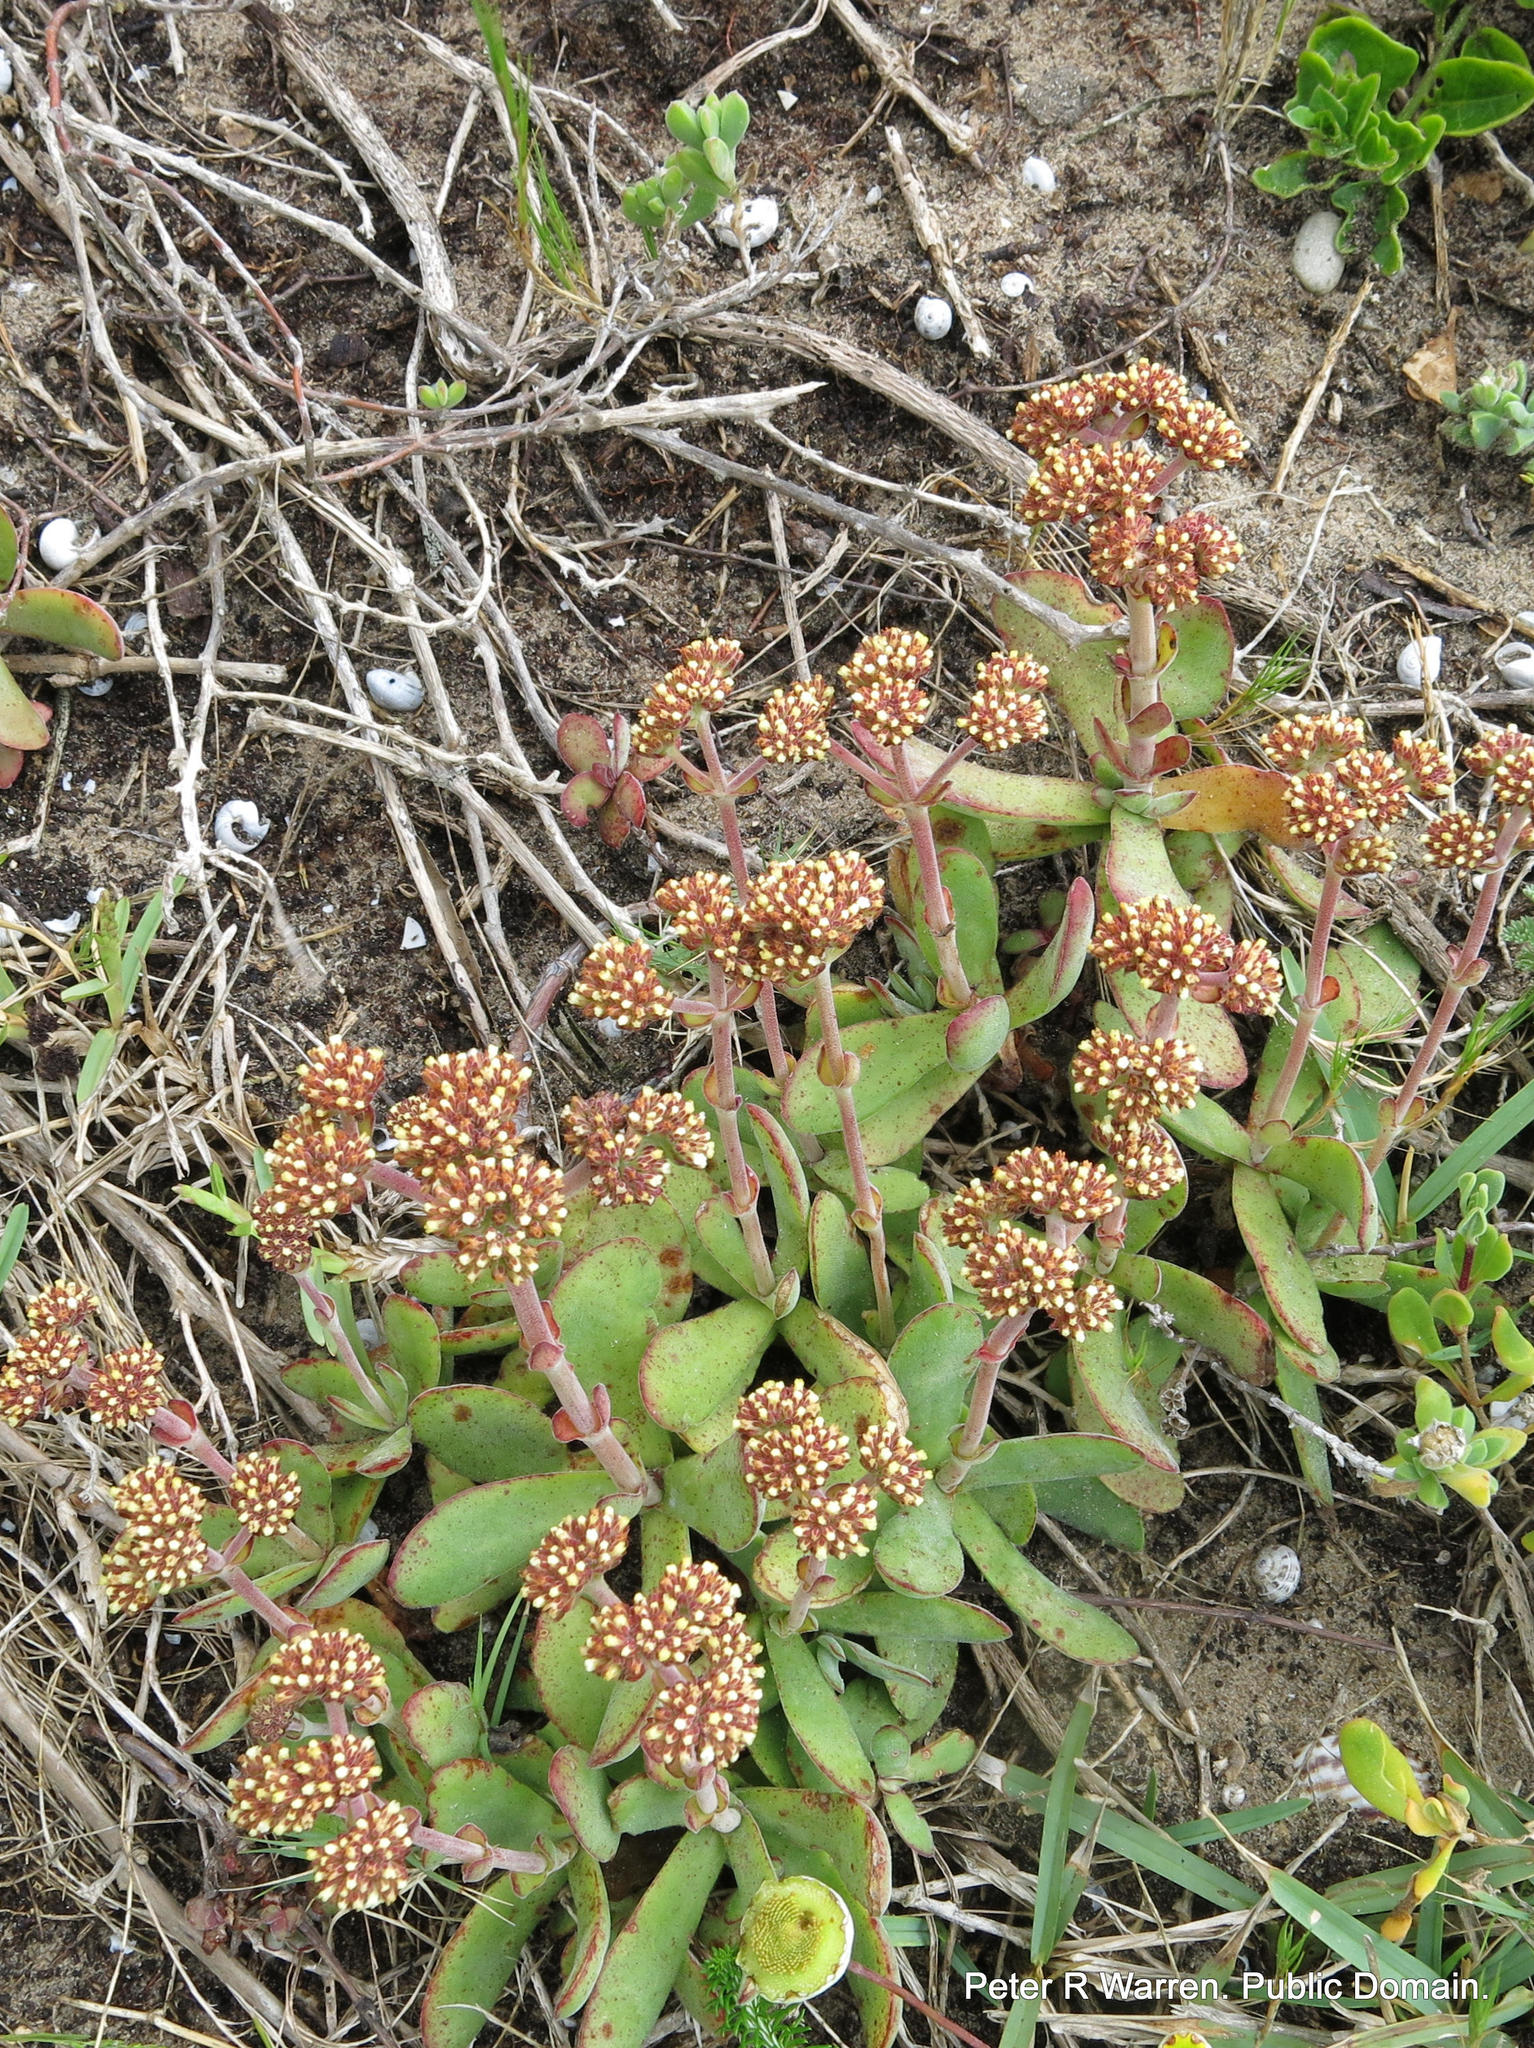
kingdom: Plantae
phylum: Tracheophyta
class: Magnoliopsida
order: Saxifragales
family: Crassulaceae
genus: Crassula
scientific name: Crassula nudicaulis
